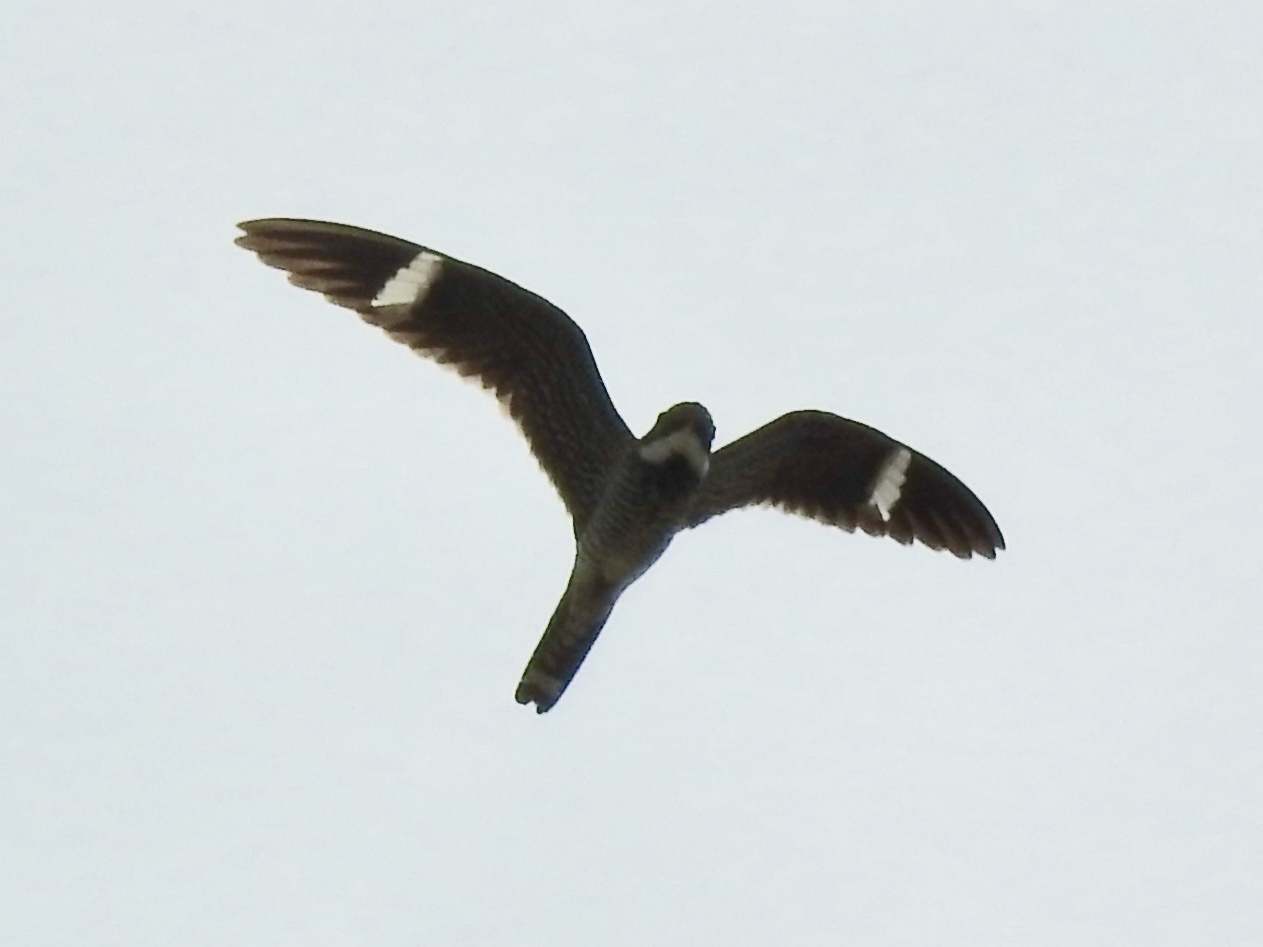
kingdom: Animalia
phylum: Chordata
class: Aves
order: Caprimulgiformes
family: Caprimulgidae
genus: Chordeiles
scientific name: Chordeiles minor
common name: Common nighthawk
